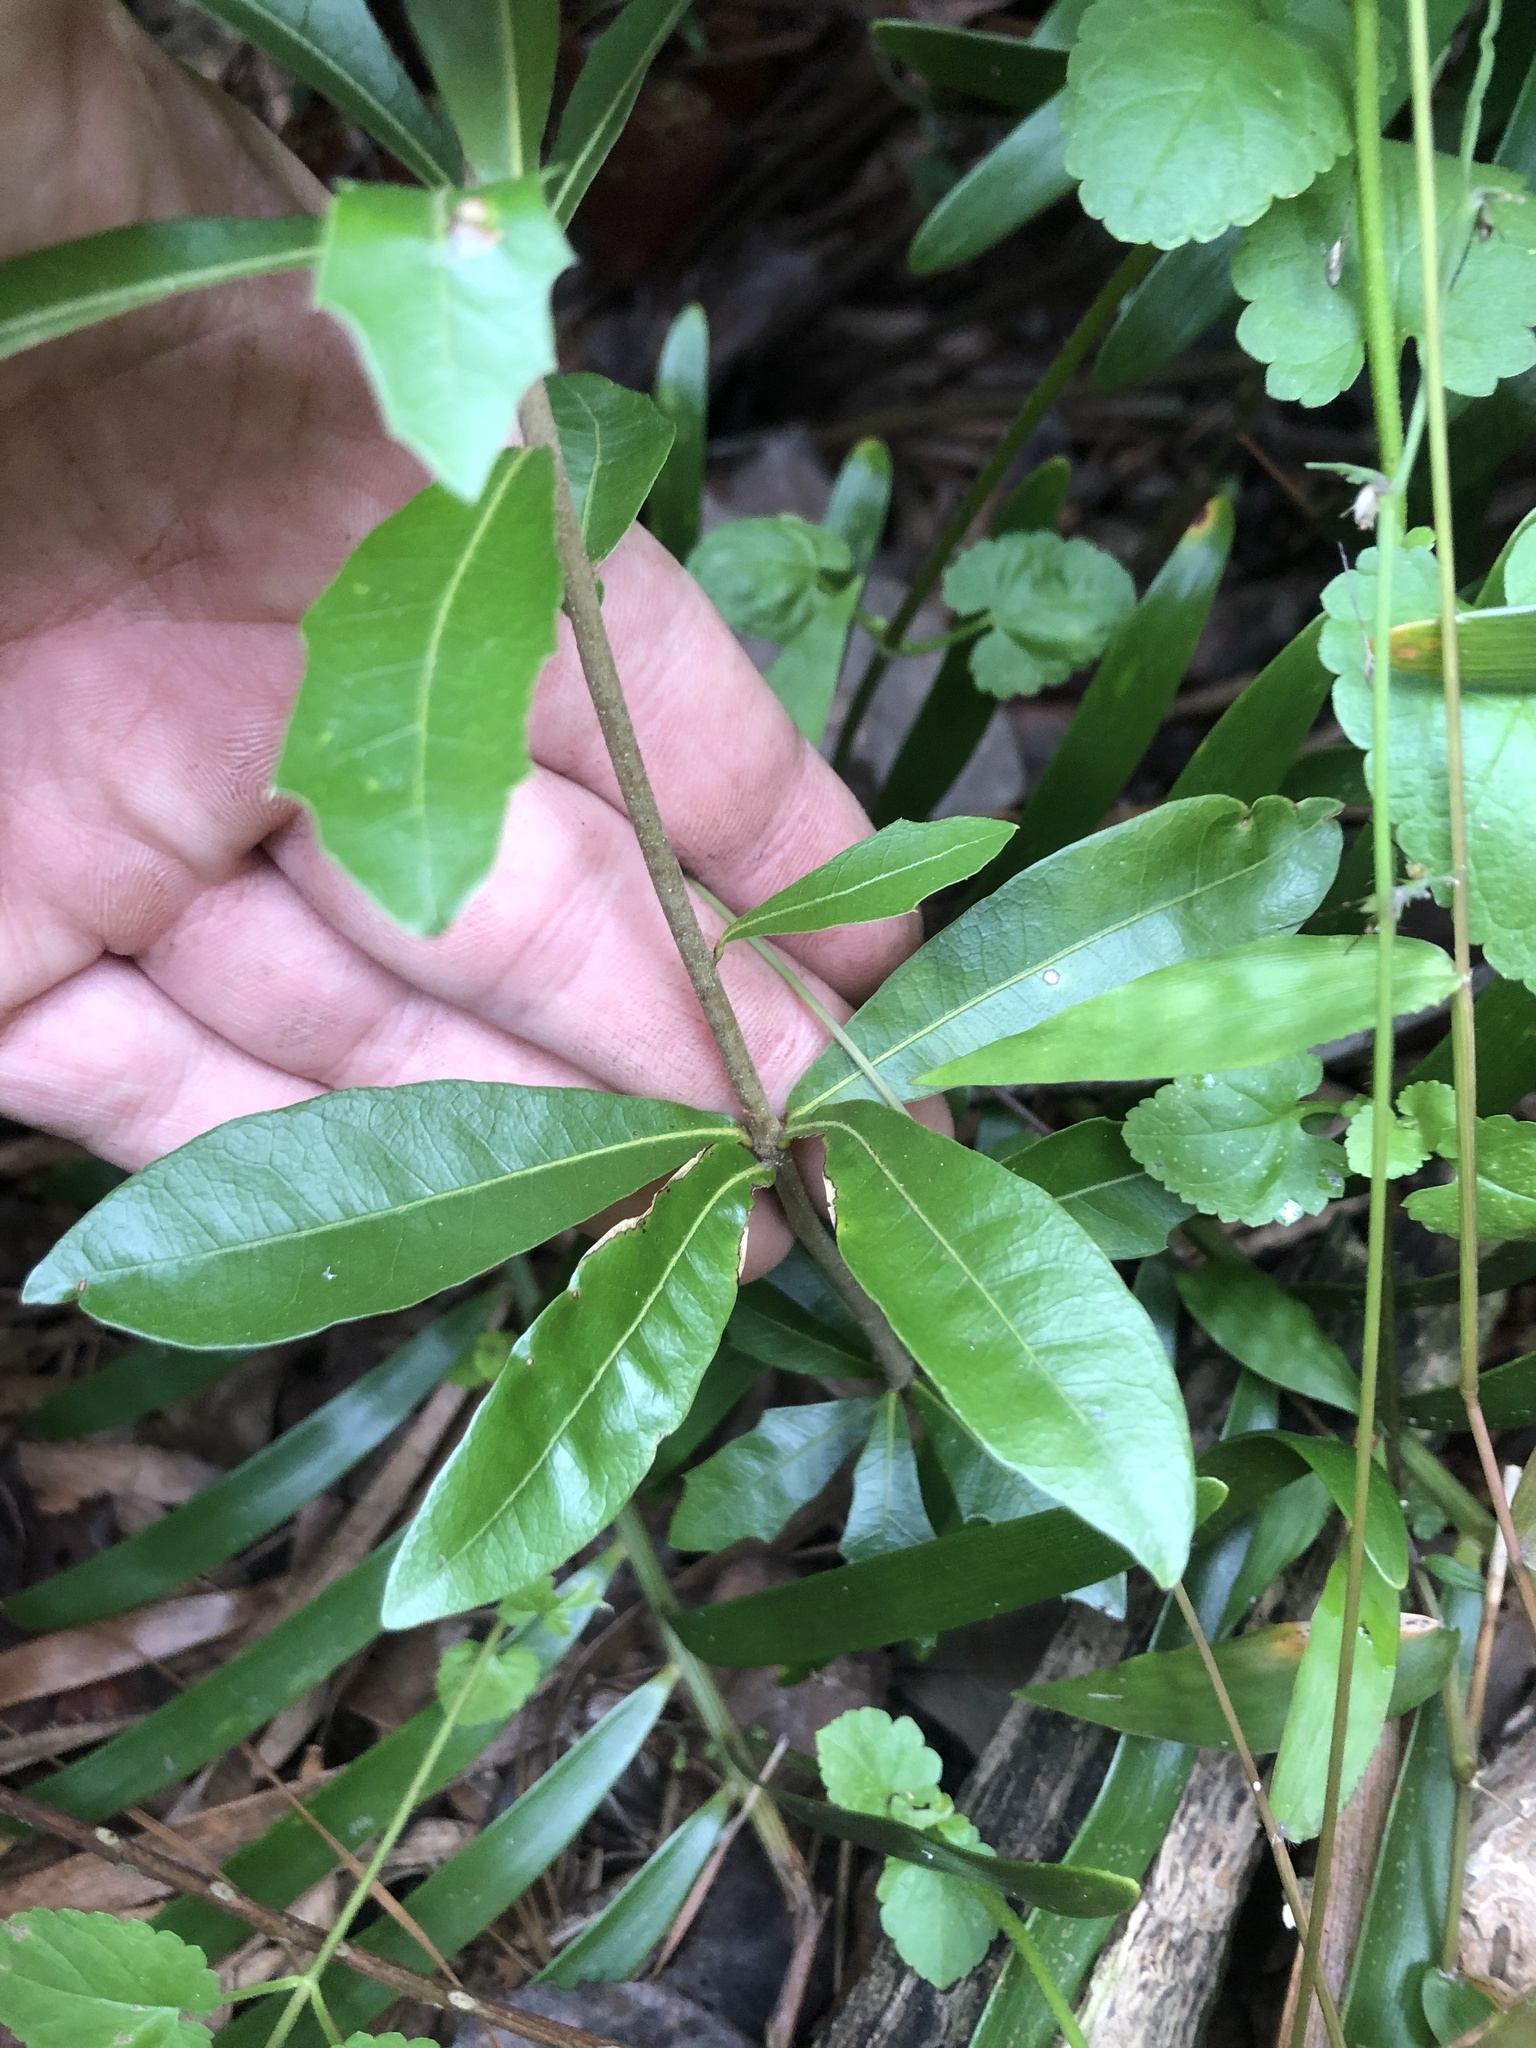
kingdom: Plantae
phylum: Tracheophyta
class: Magnoliopsida
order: Fagales
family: Fagaceae
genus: Quercus
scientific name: Quercus hemisphaerica
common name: Darlington oak
